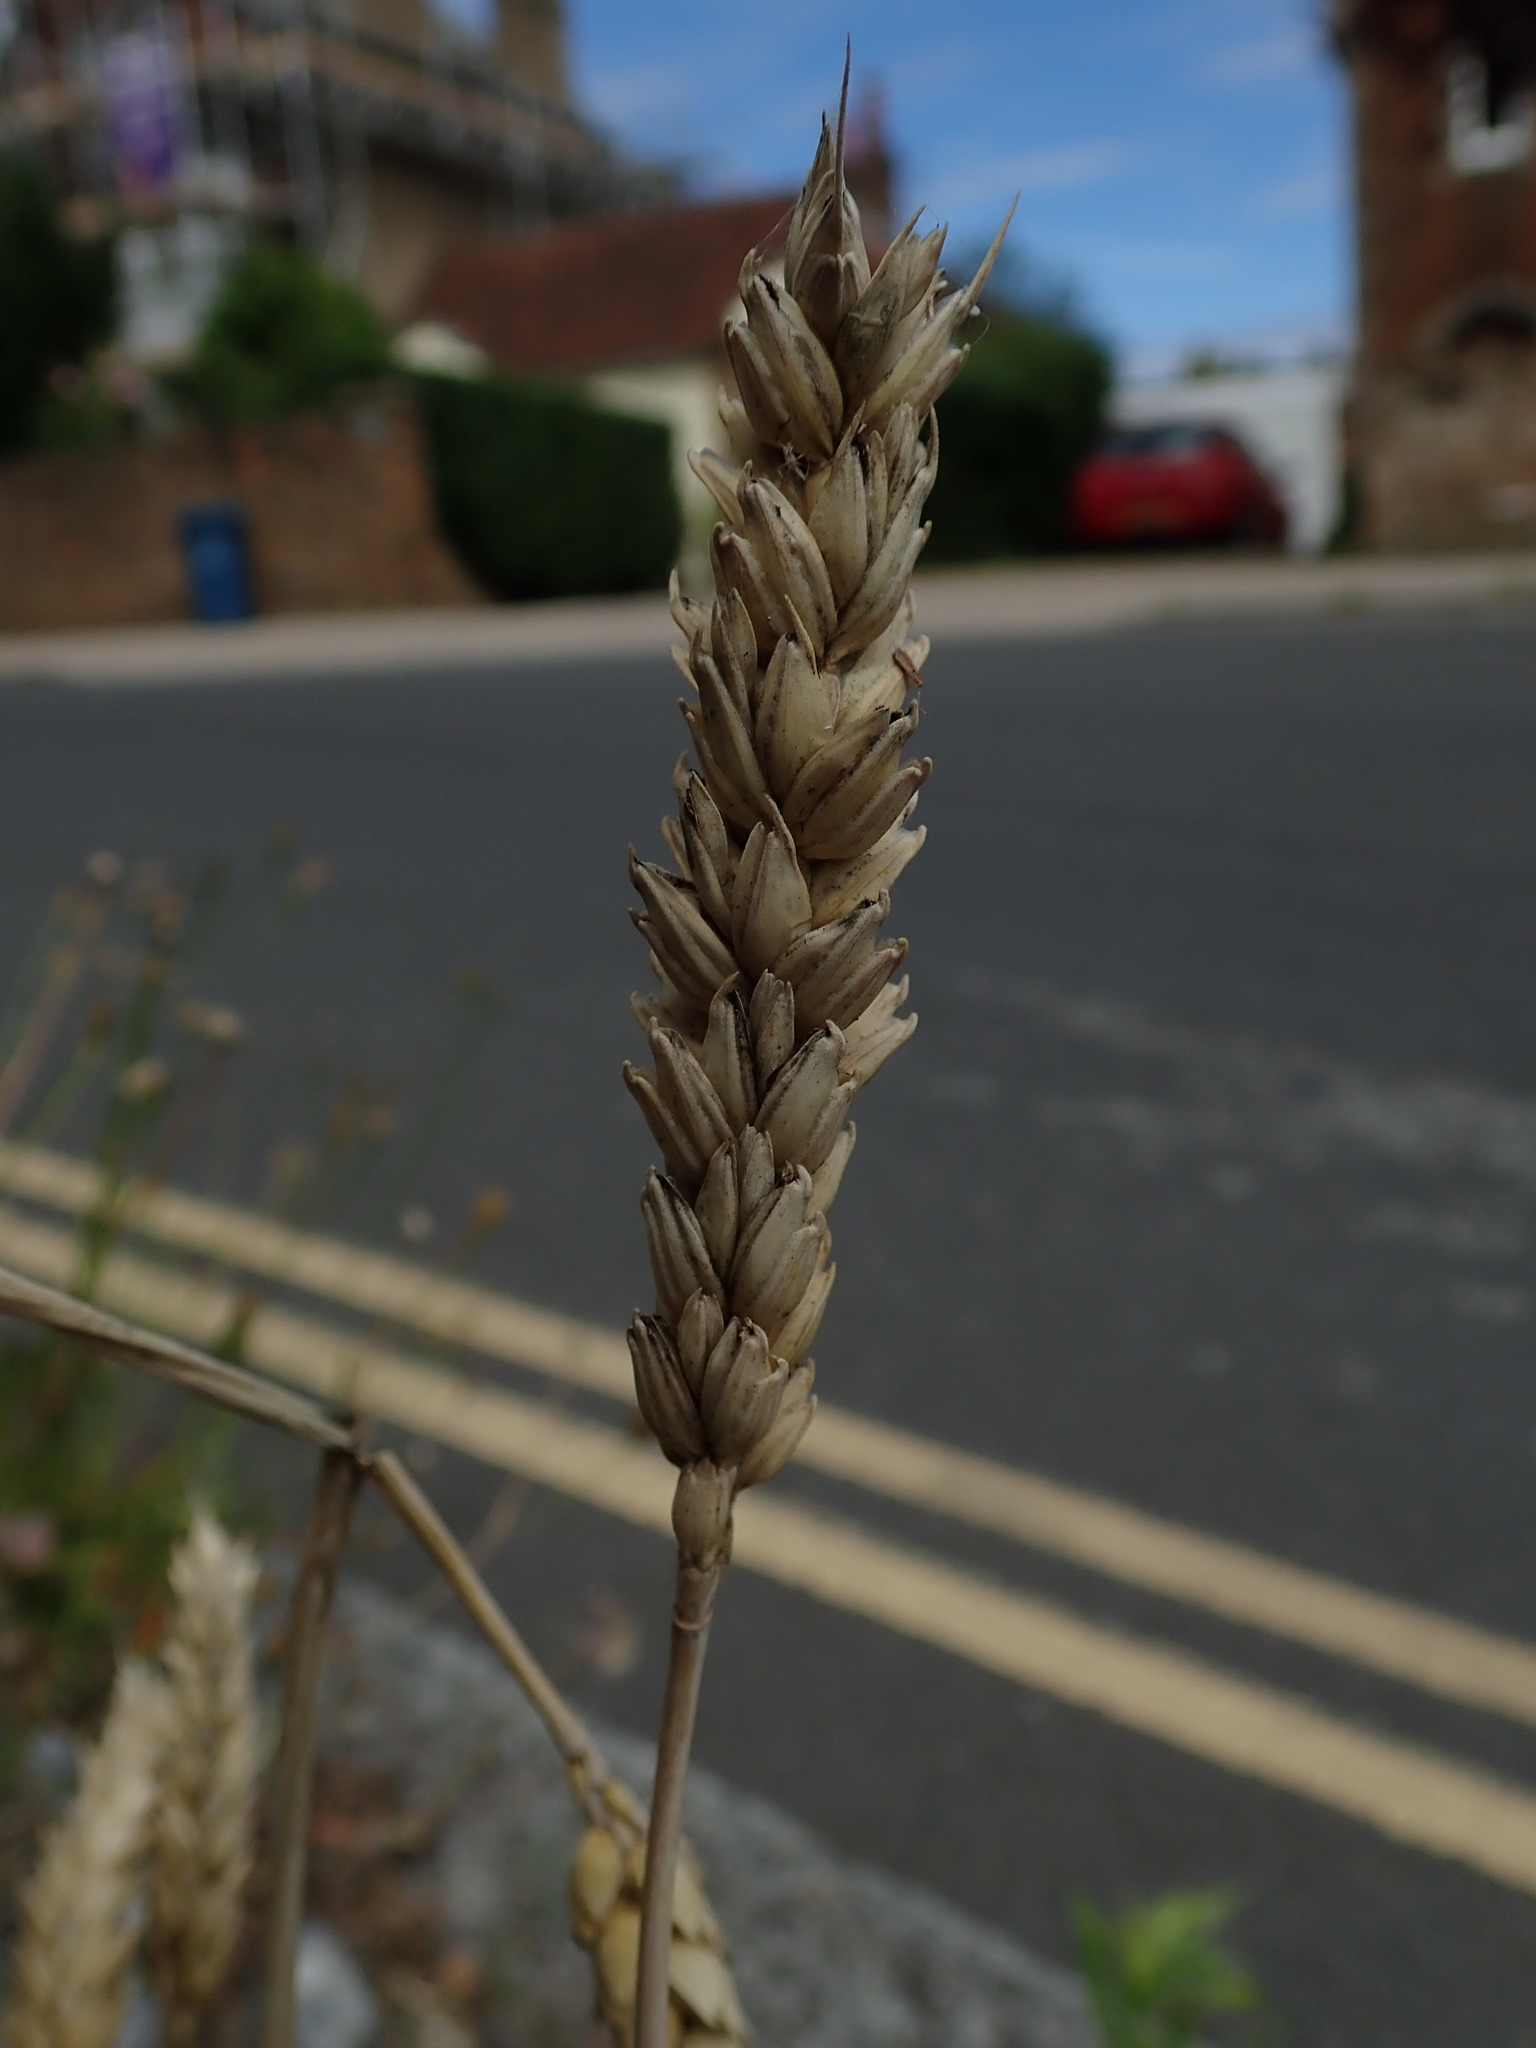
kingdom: Plantae
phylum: Tracheophyta
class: Liliopsida
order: Poales
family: Poaceae
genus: Triticum
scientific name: Triticum aestivum
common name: Common wheat
